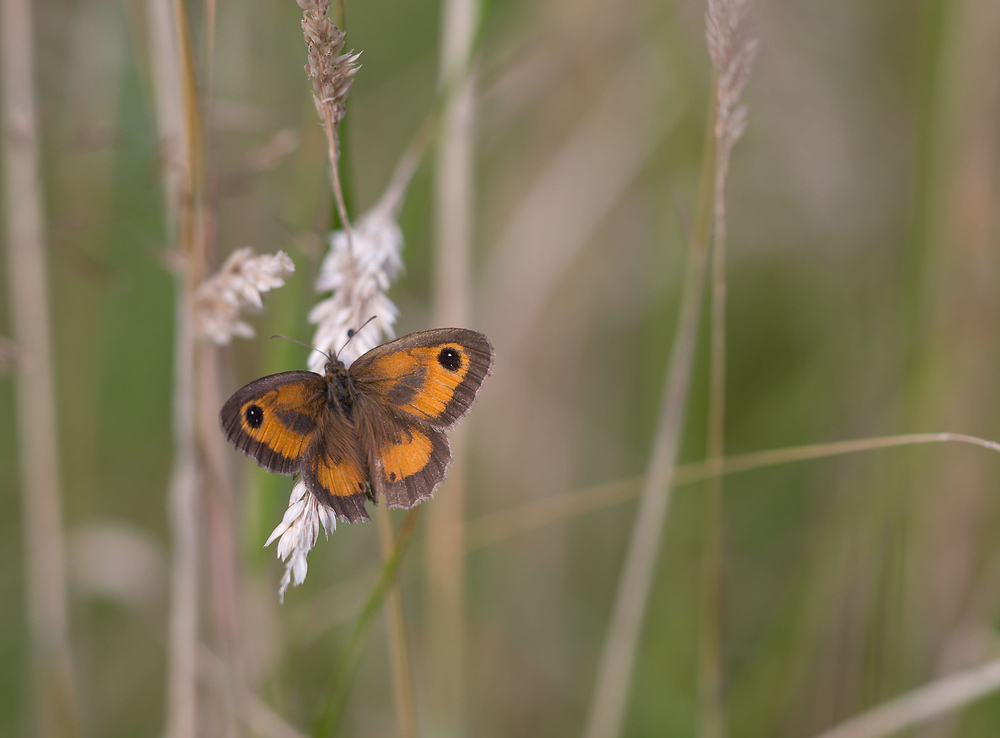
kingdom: Animalia
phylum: Arthropoda
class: Insecta
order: Lepidoptera
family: Nymphalidae
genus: Pyronia
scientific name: Pyronia tithonus
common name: Gatekeeper
